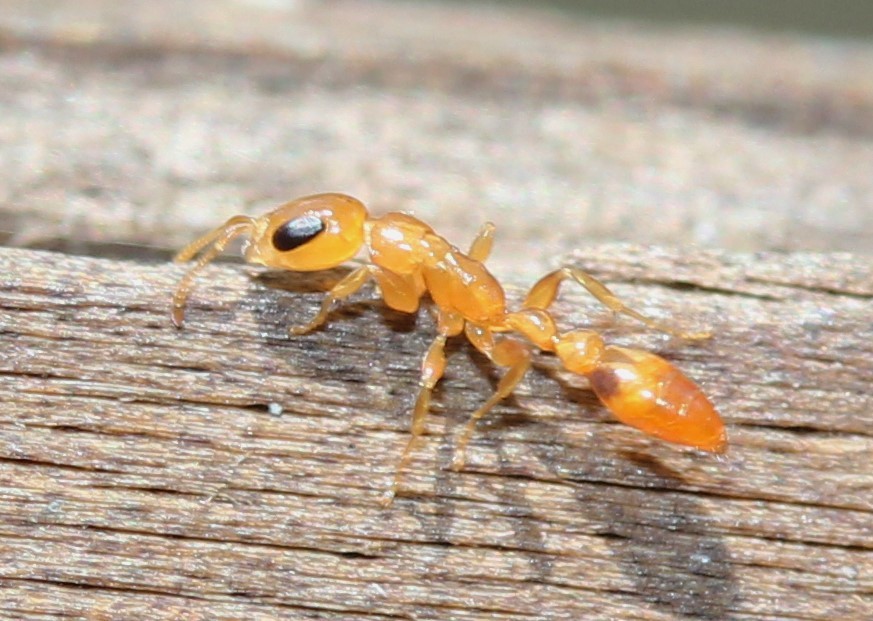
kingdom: Animalia
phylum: Arthropoda
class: Insecta
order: Hymenoptera
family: Formicidae
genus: Pseudomyrmex
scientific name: Pseudomyrmex simplex
